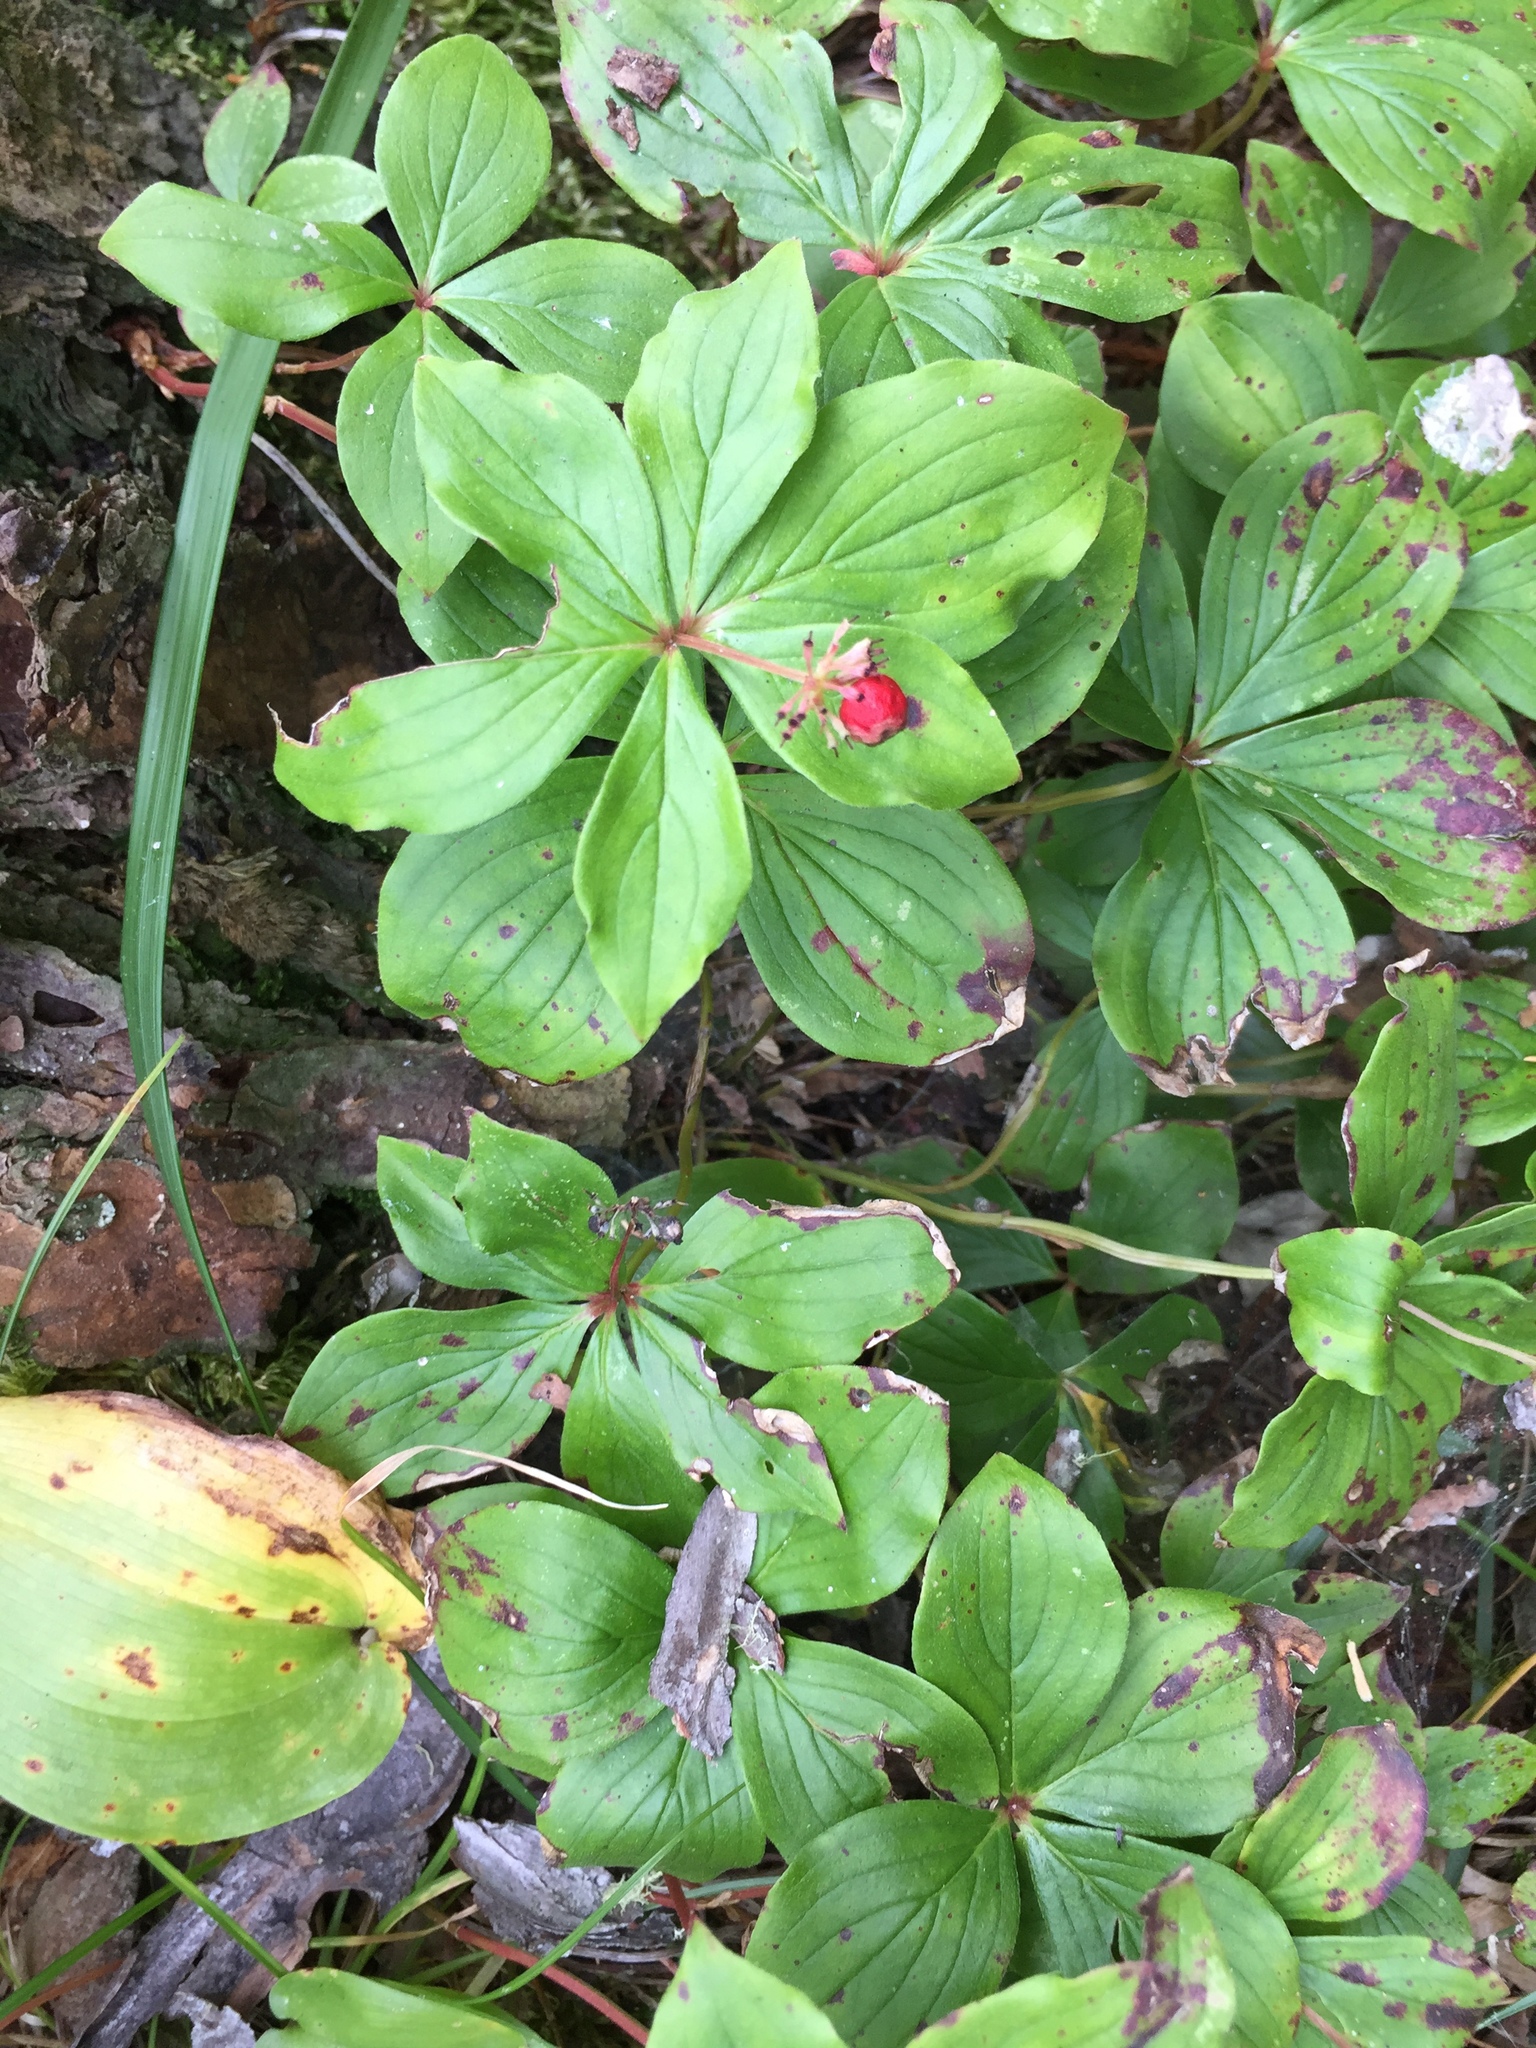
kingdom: Plantae
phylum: Tracheophyta
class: Magnoliopsida
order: Cornales
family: Cornaceae
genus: Cornus
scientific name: Cornus canadensis
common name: Creeping dogwood
